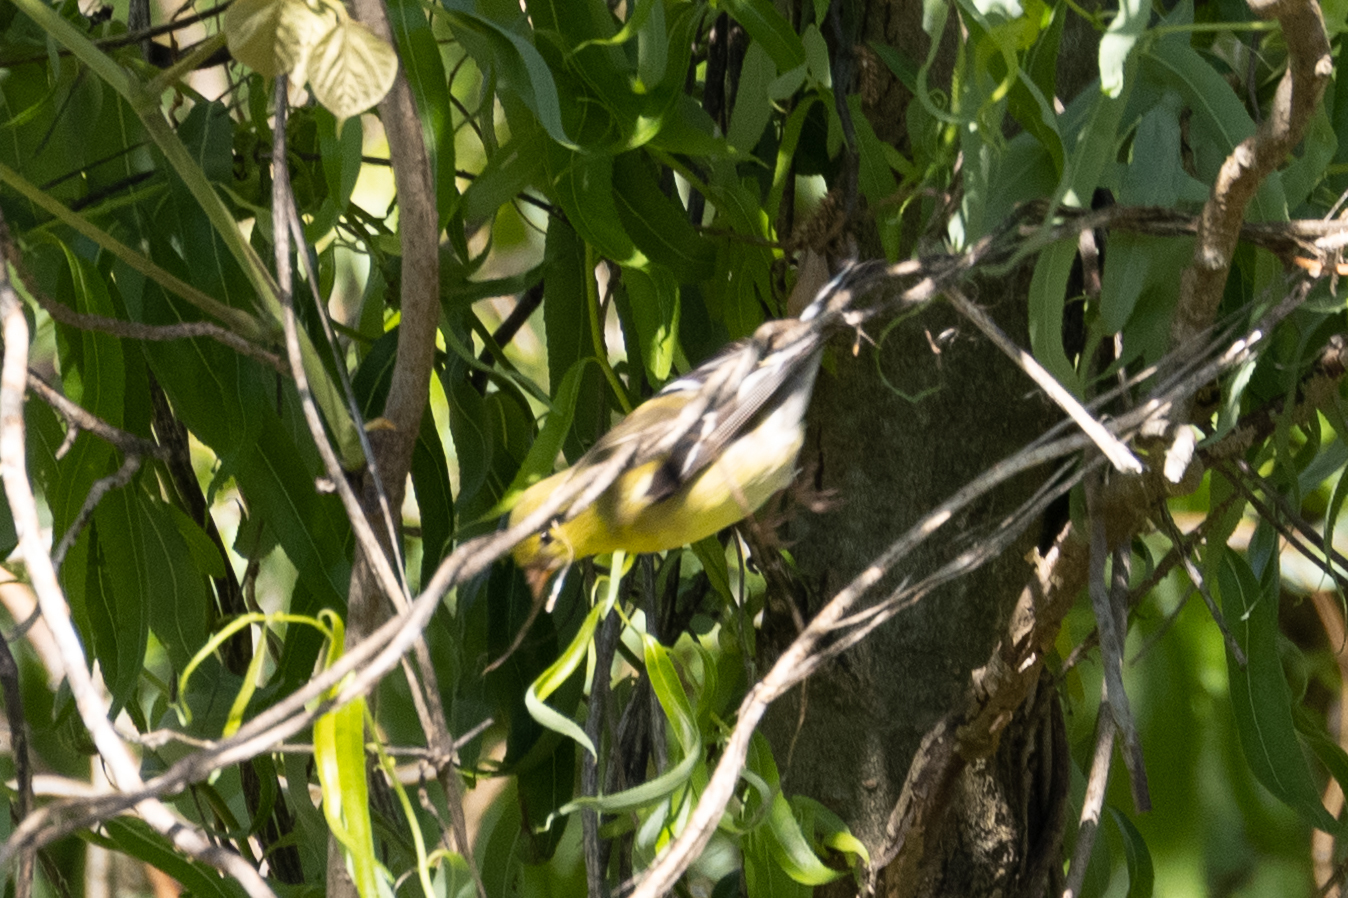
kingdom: Animalia
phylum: Chordata
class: Aves
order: Passeriformes
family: Fringillidae
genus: Spinus
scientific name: Spinus tristis
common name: American goldfinch
